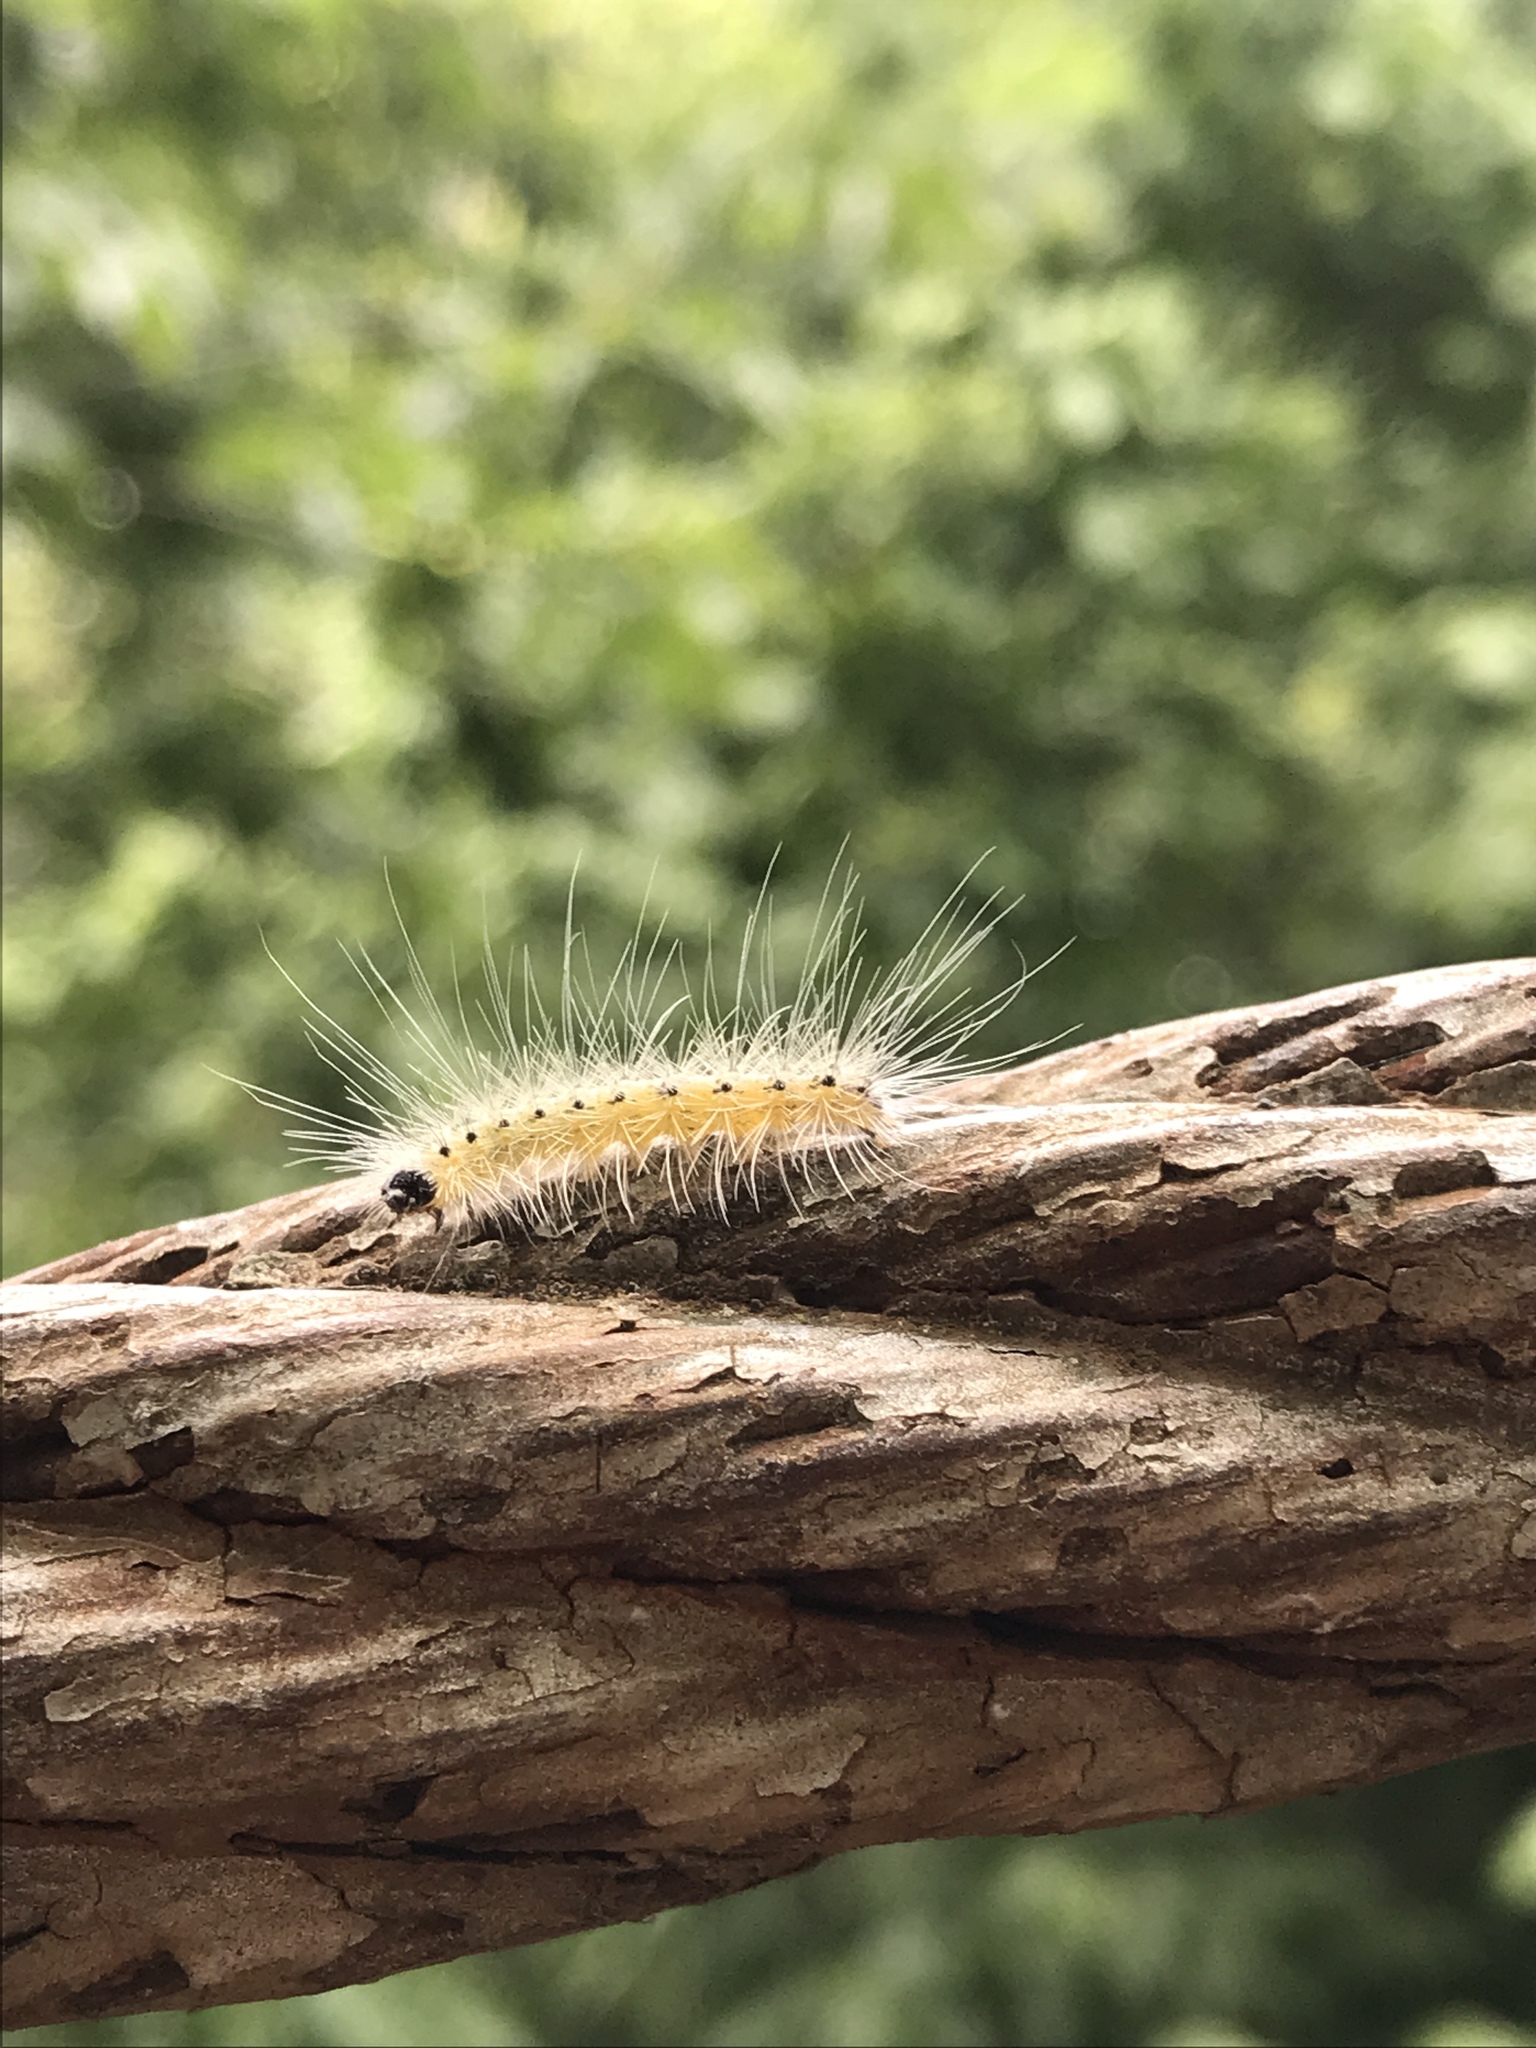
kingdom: Animalia
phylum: Arthropoda
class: Insecta
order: Lepidoptera
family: Erebidae
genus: Hyphantria
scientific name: Hyphantria cunea
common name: American white moth
